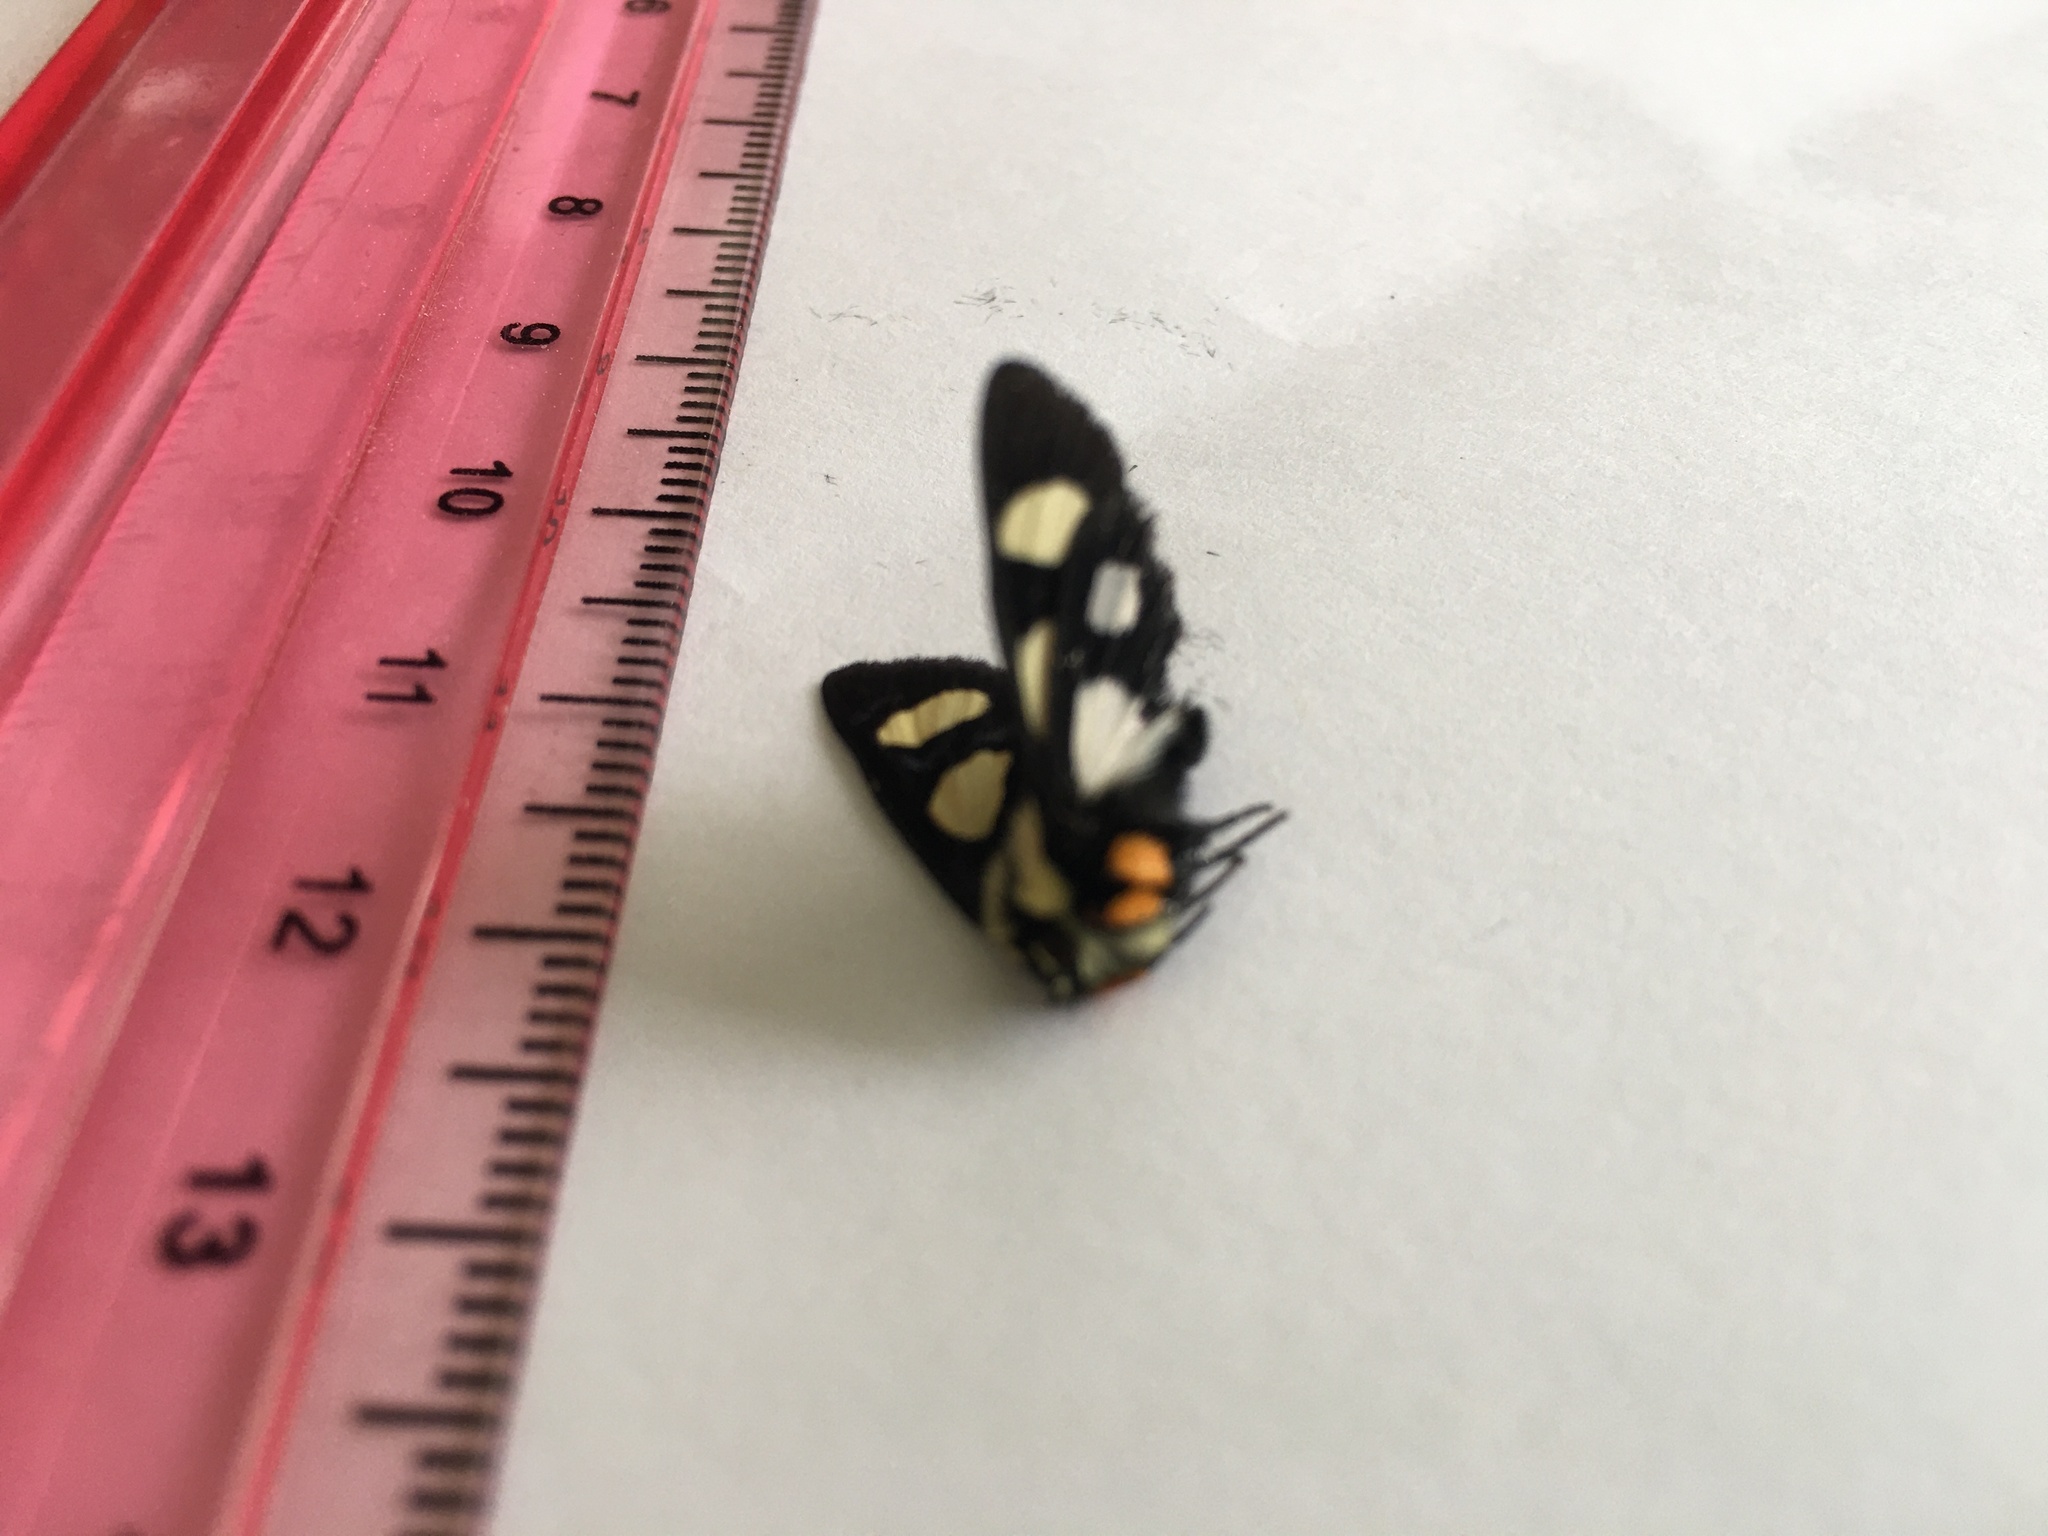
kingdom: Animalia
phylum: Arthropoda
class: Insecta
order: Lepidoptera
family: Noctuidae
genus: Alypia
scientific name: Alypia octomaculata
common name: Eight-spotted forester
